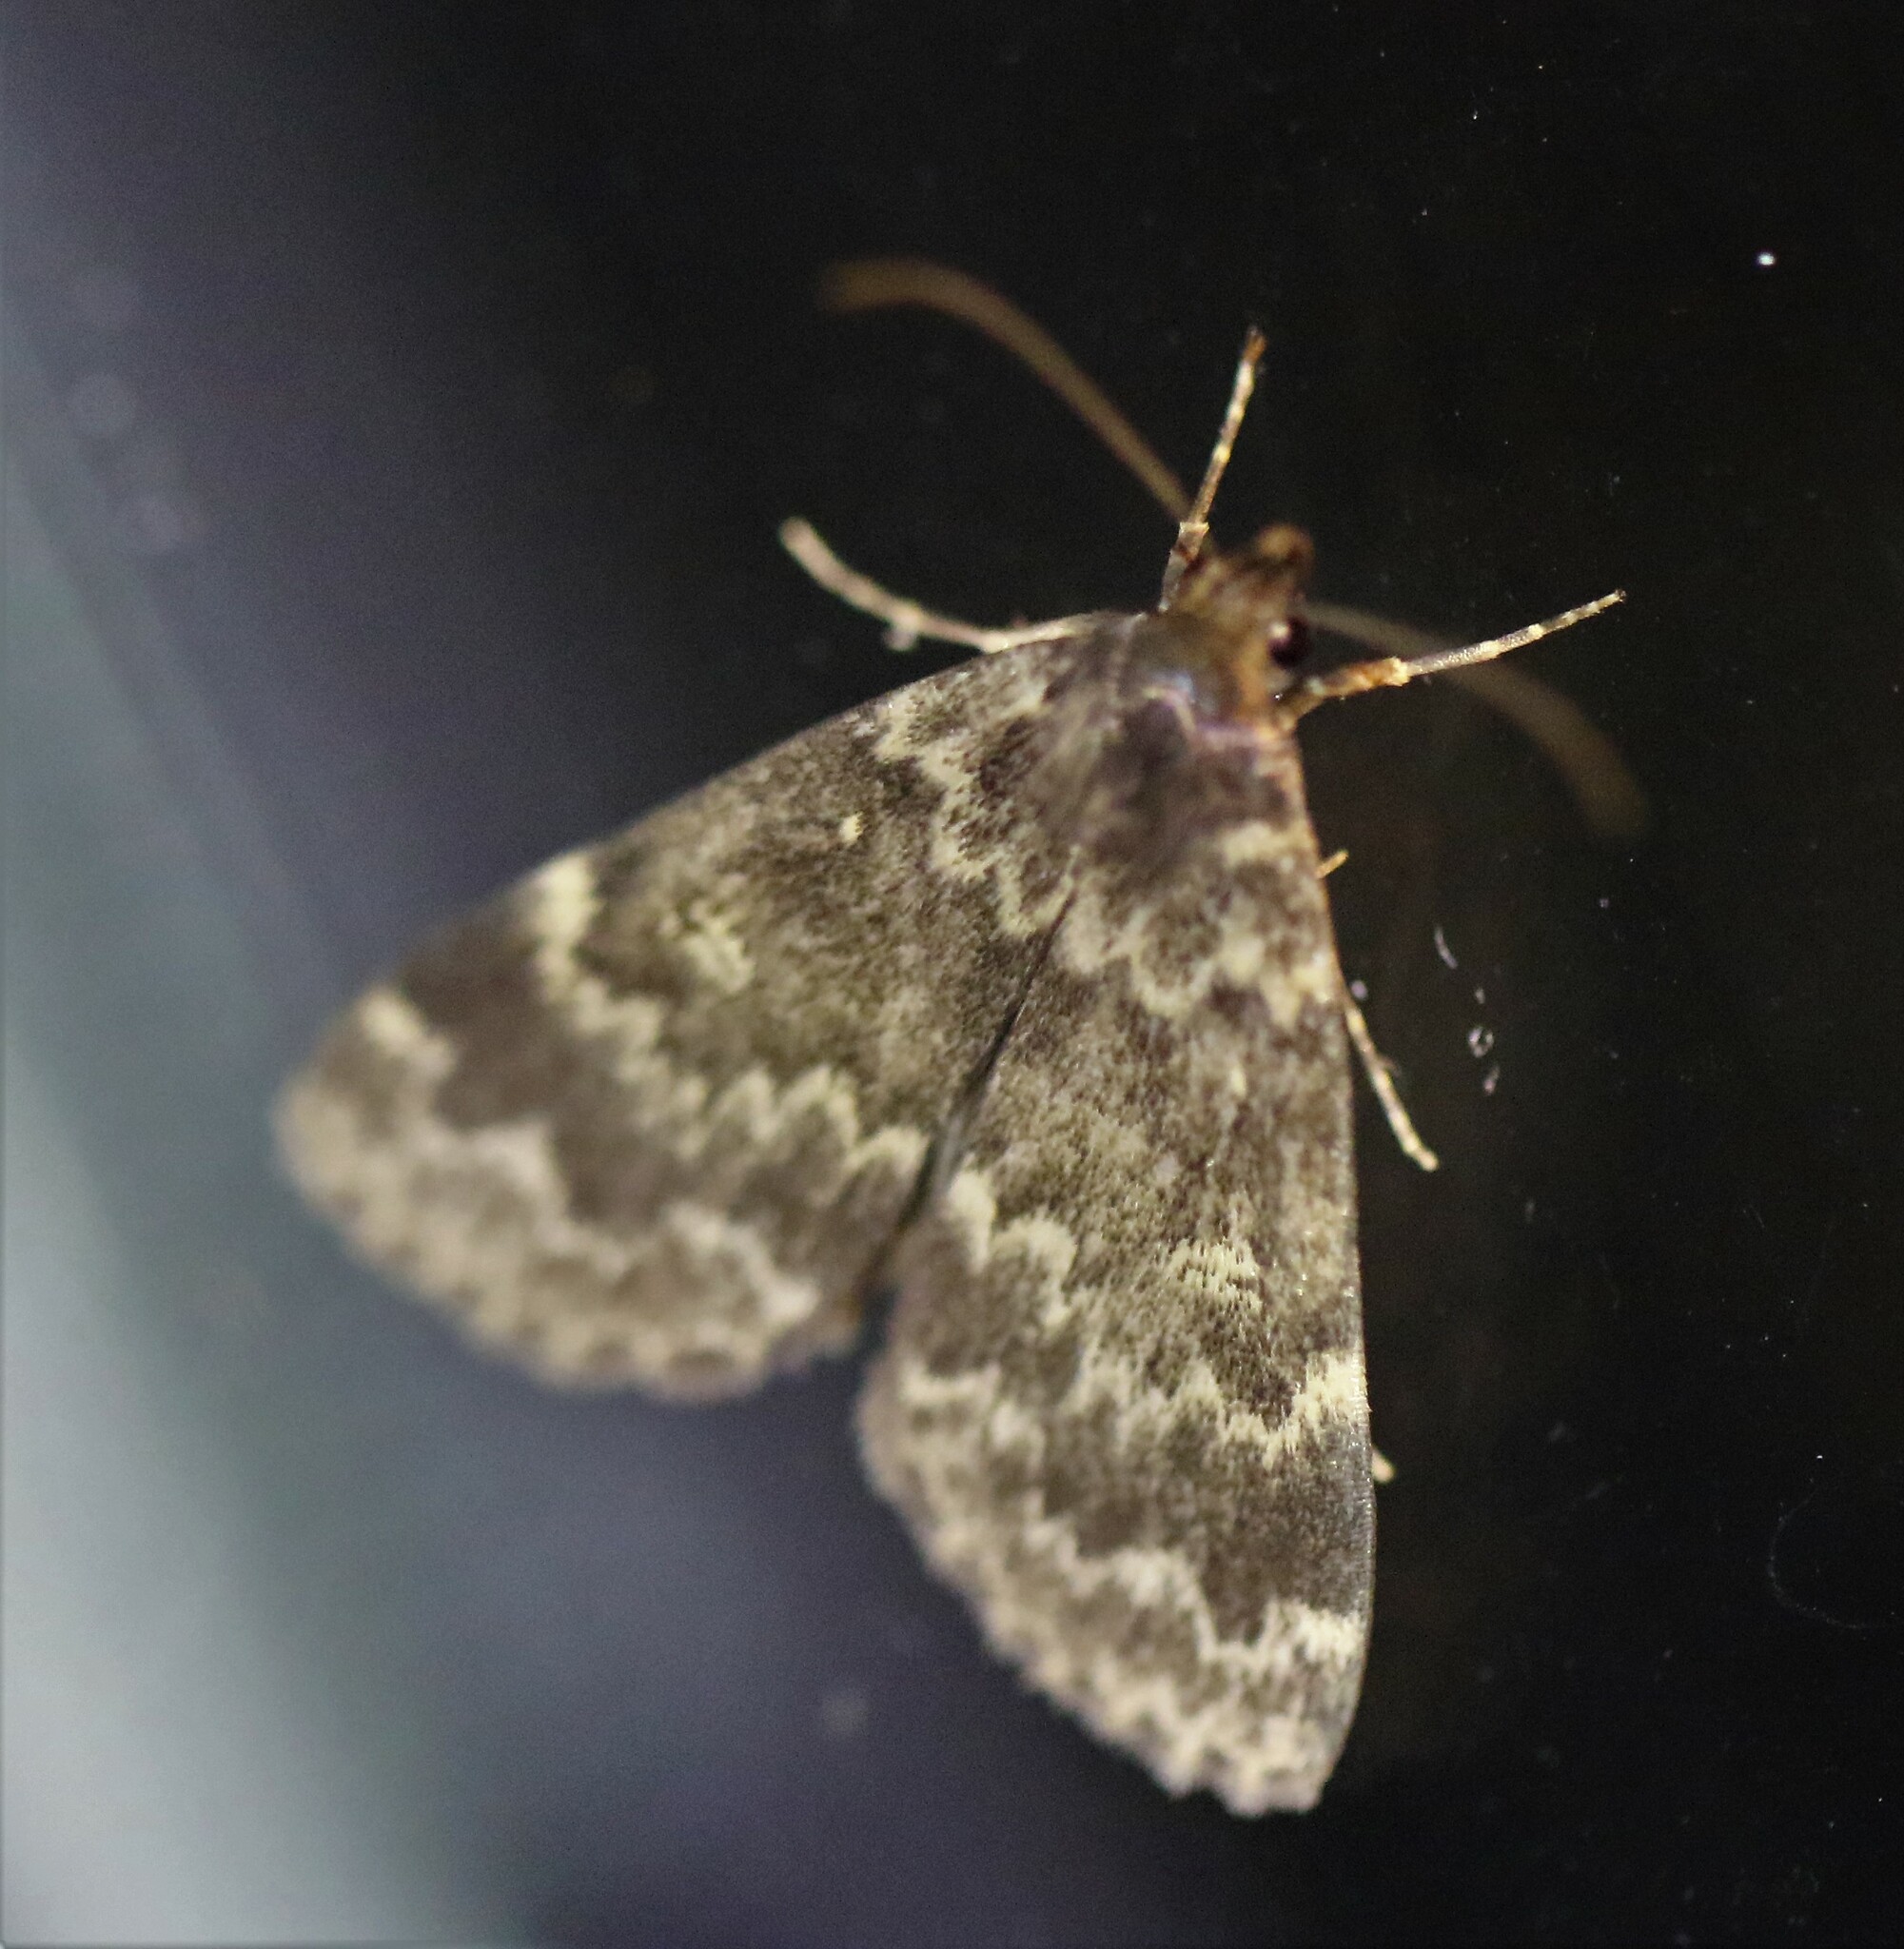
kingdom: Animalia
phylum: Arthropoda
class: Insecta
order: Lepidoptera
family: Erebidae
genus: Idia
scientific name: Idia scobialis
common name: Smoky idia moth
